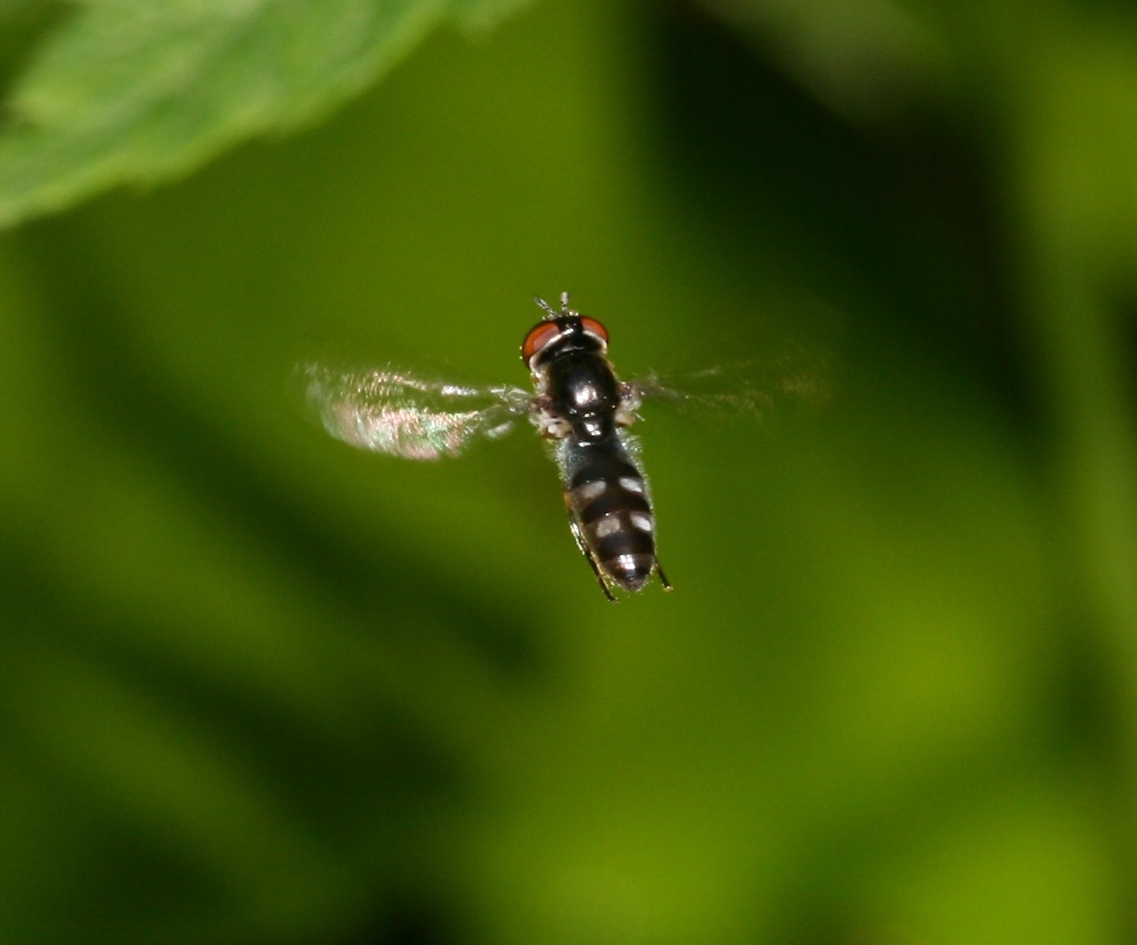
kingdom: Animalia
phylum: Arthropoda
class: Insecta
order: Diptera
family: Syrphidae
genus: Platycheirus
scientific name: Platycheirus albimanus
